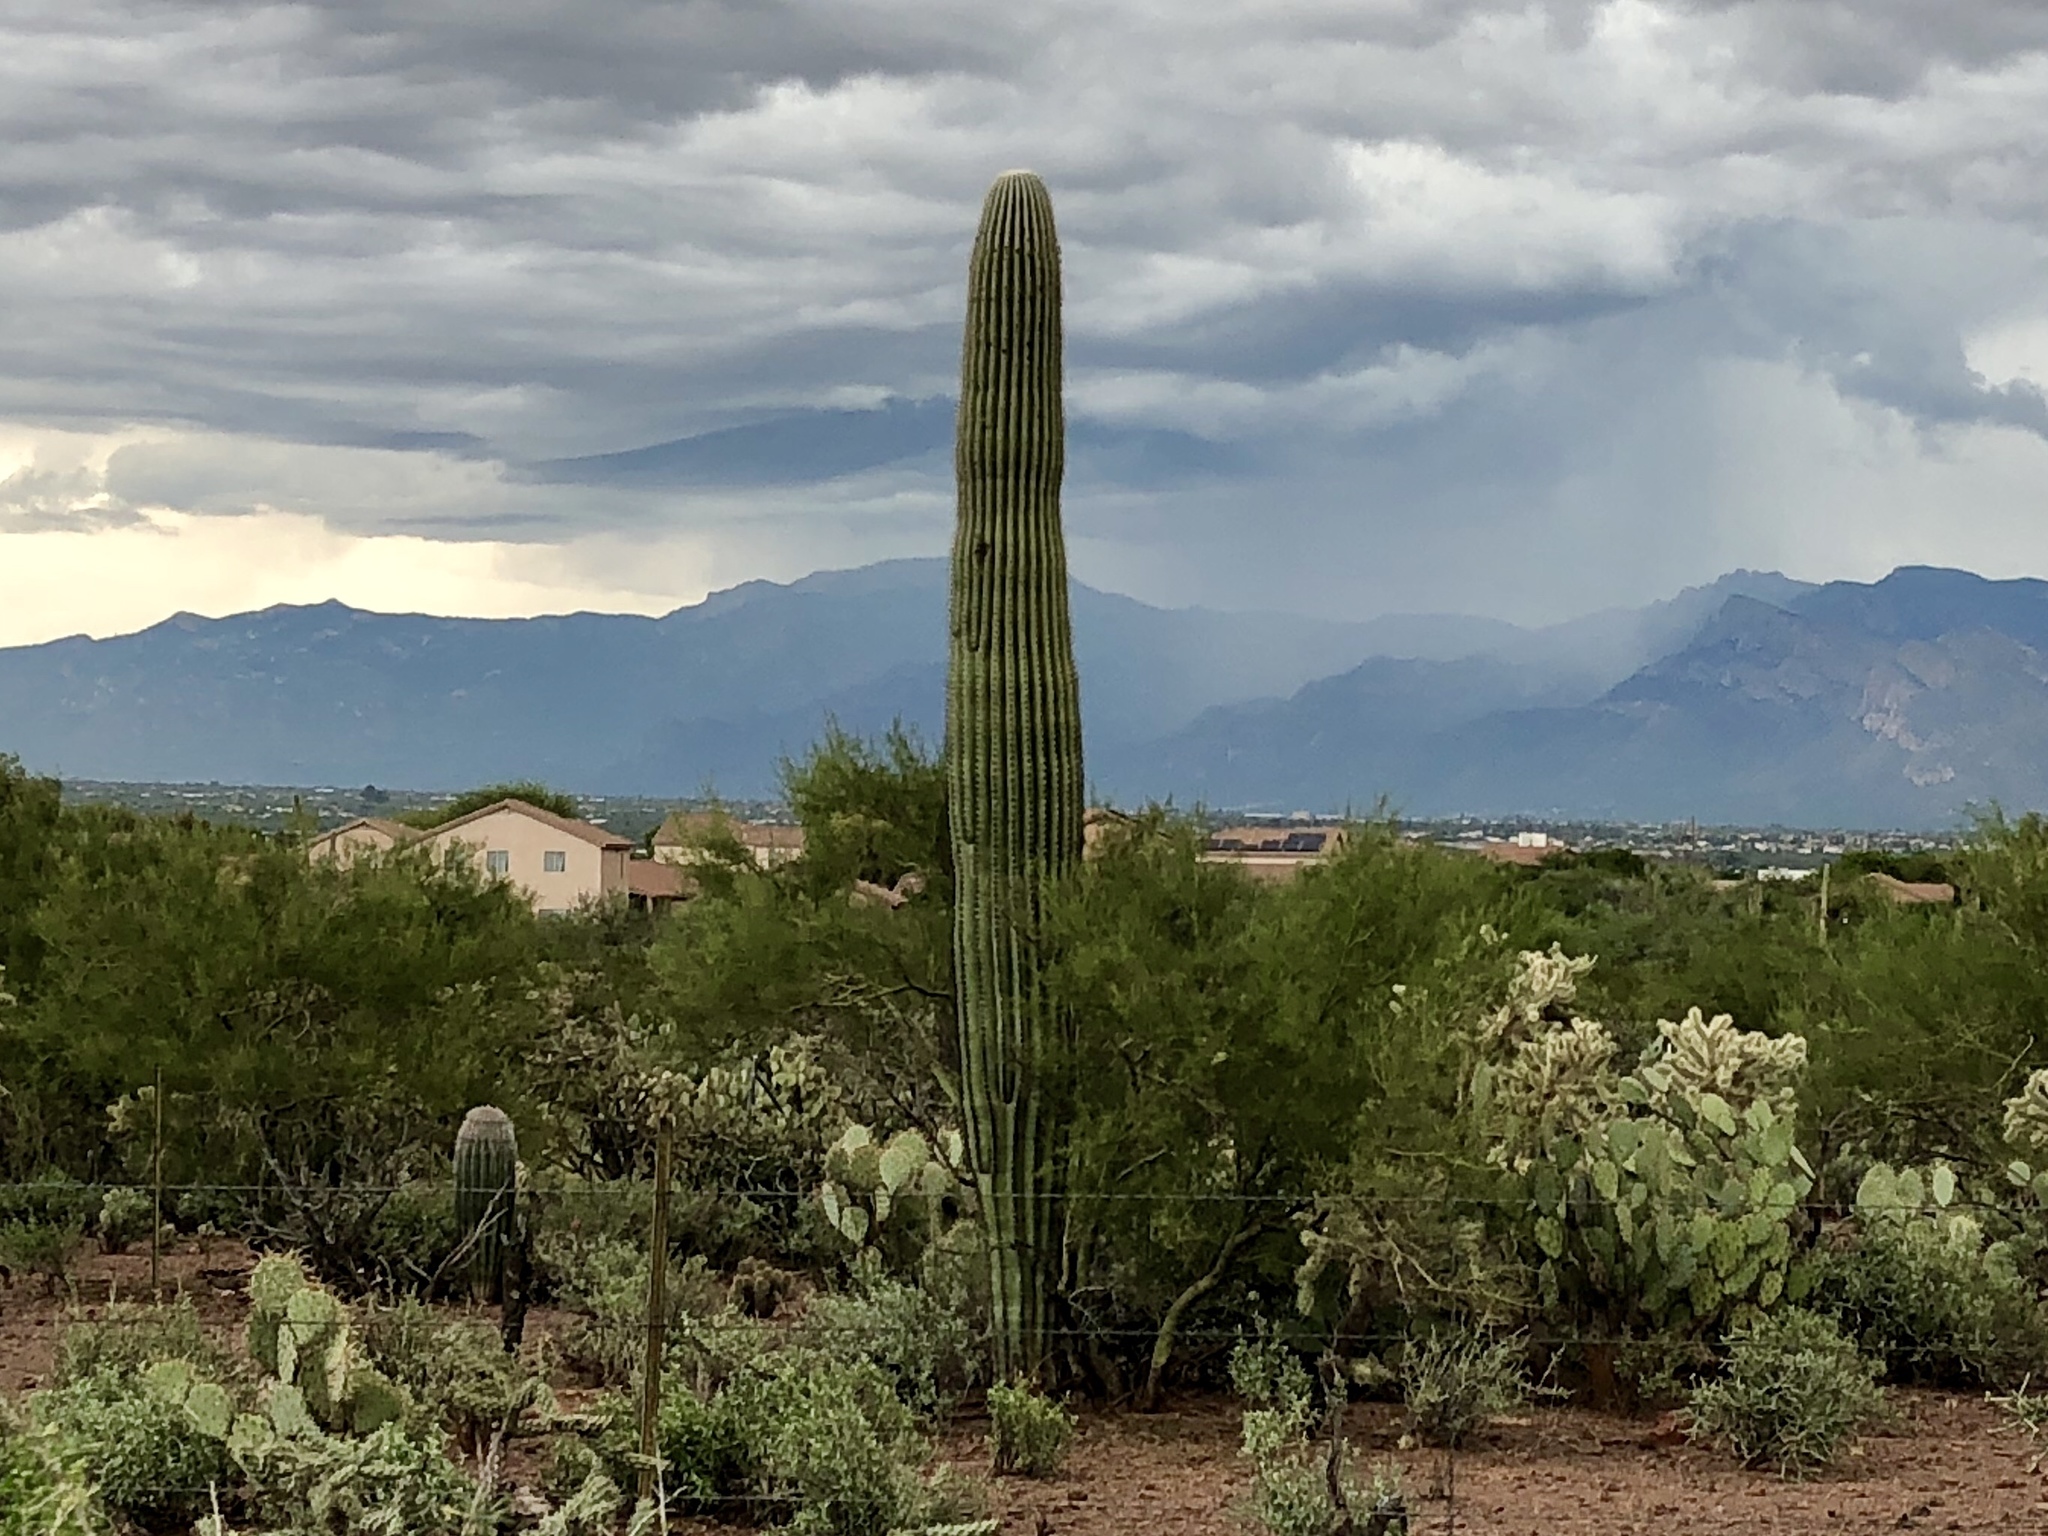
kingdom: Plantae
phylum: Tracheophyta
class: Magnoliopsida
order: Caryophyllales
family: Cactaceae
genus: Carnegiea
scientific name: Carnegiea gigantea
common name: Saguaro
